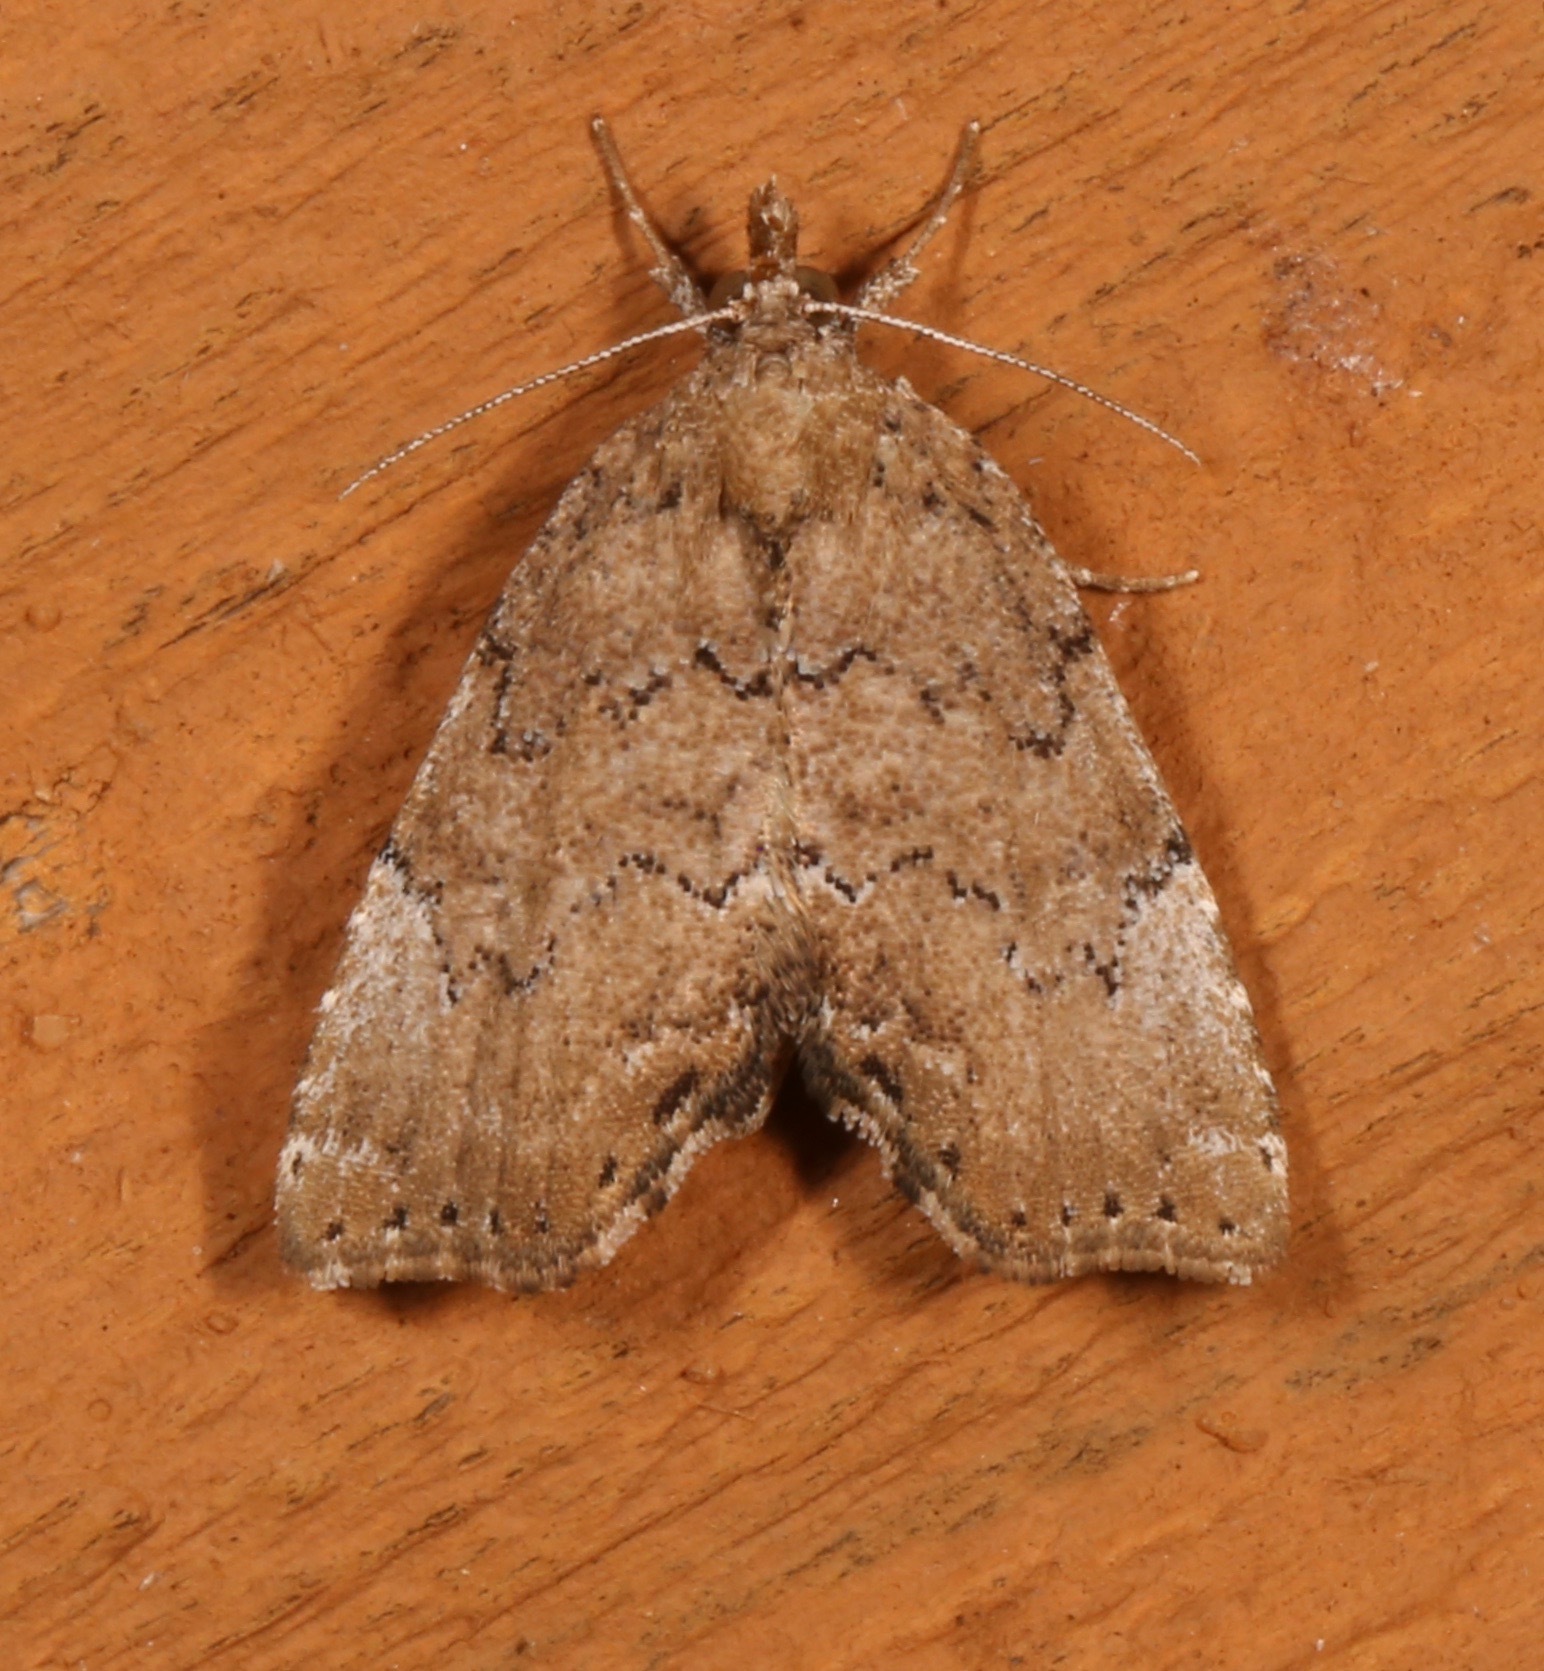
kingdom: Animalia
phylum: Arthropoda
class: Insecta
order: Lepidoptera
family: Erebidae
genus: Cutina
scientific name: Cutina aluticolor
